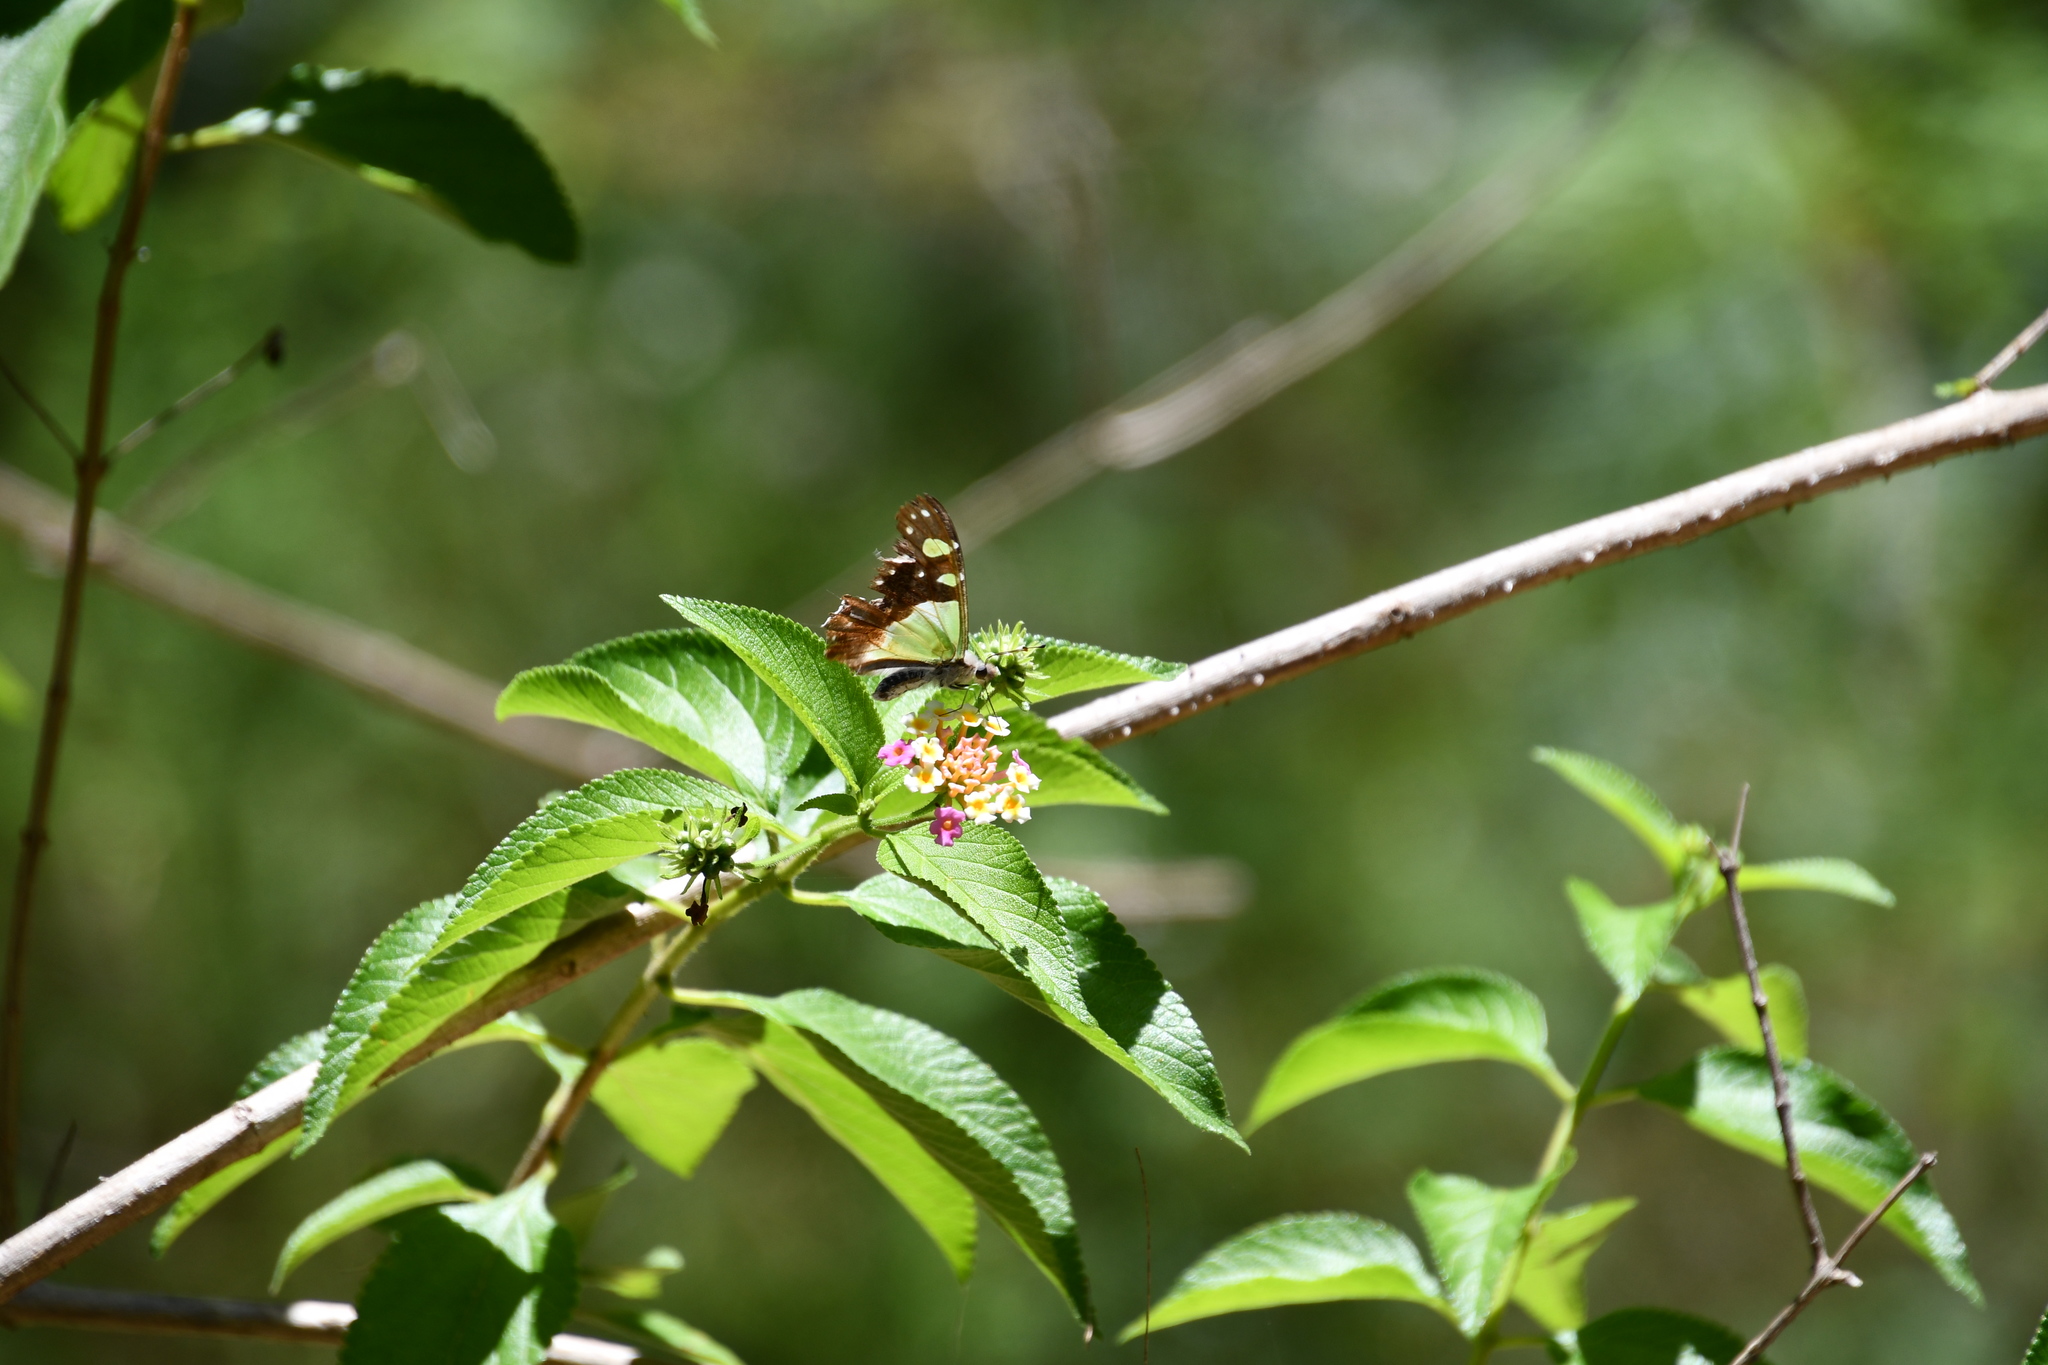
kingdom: Animalia
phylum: Arthropoda
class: Insecta
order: Lepidoptera
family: Papilionidae
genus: Graphium
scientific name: Graphium macleayanus
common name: Macleay's swallowtail
